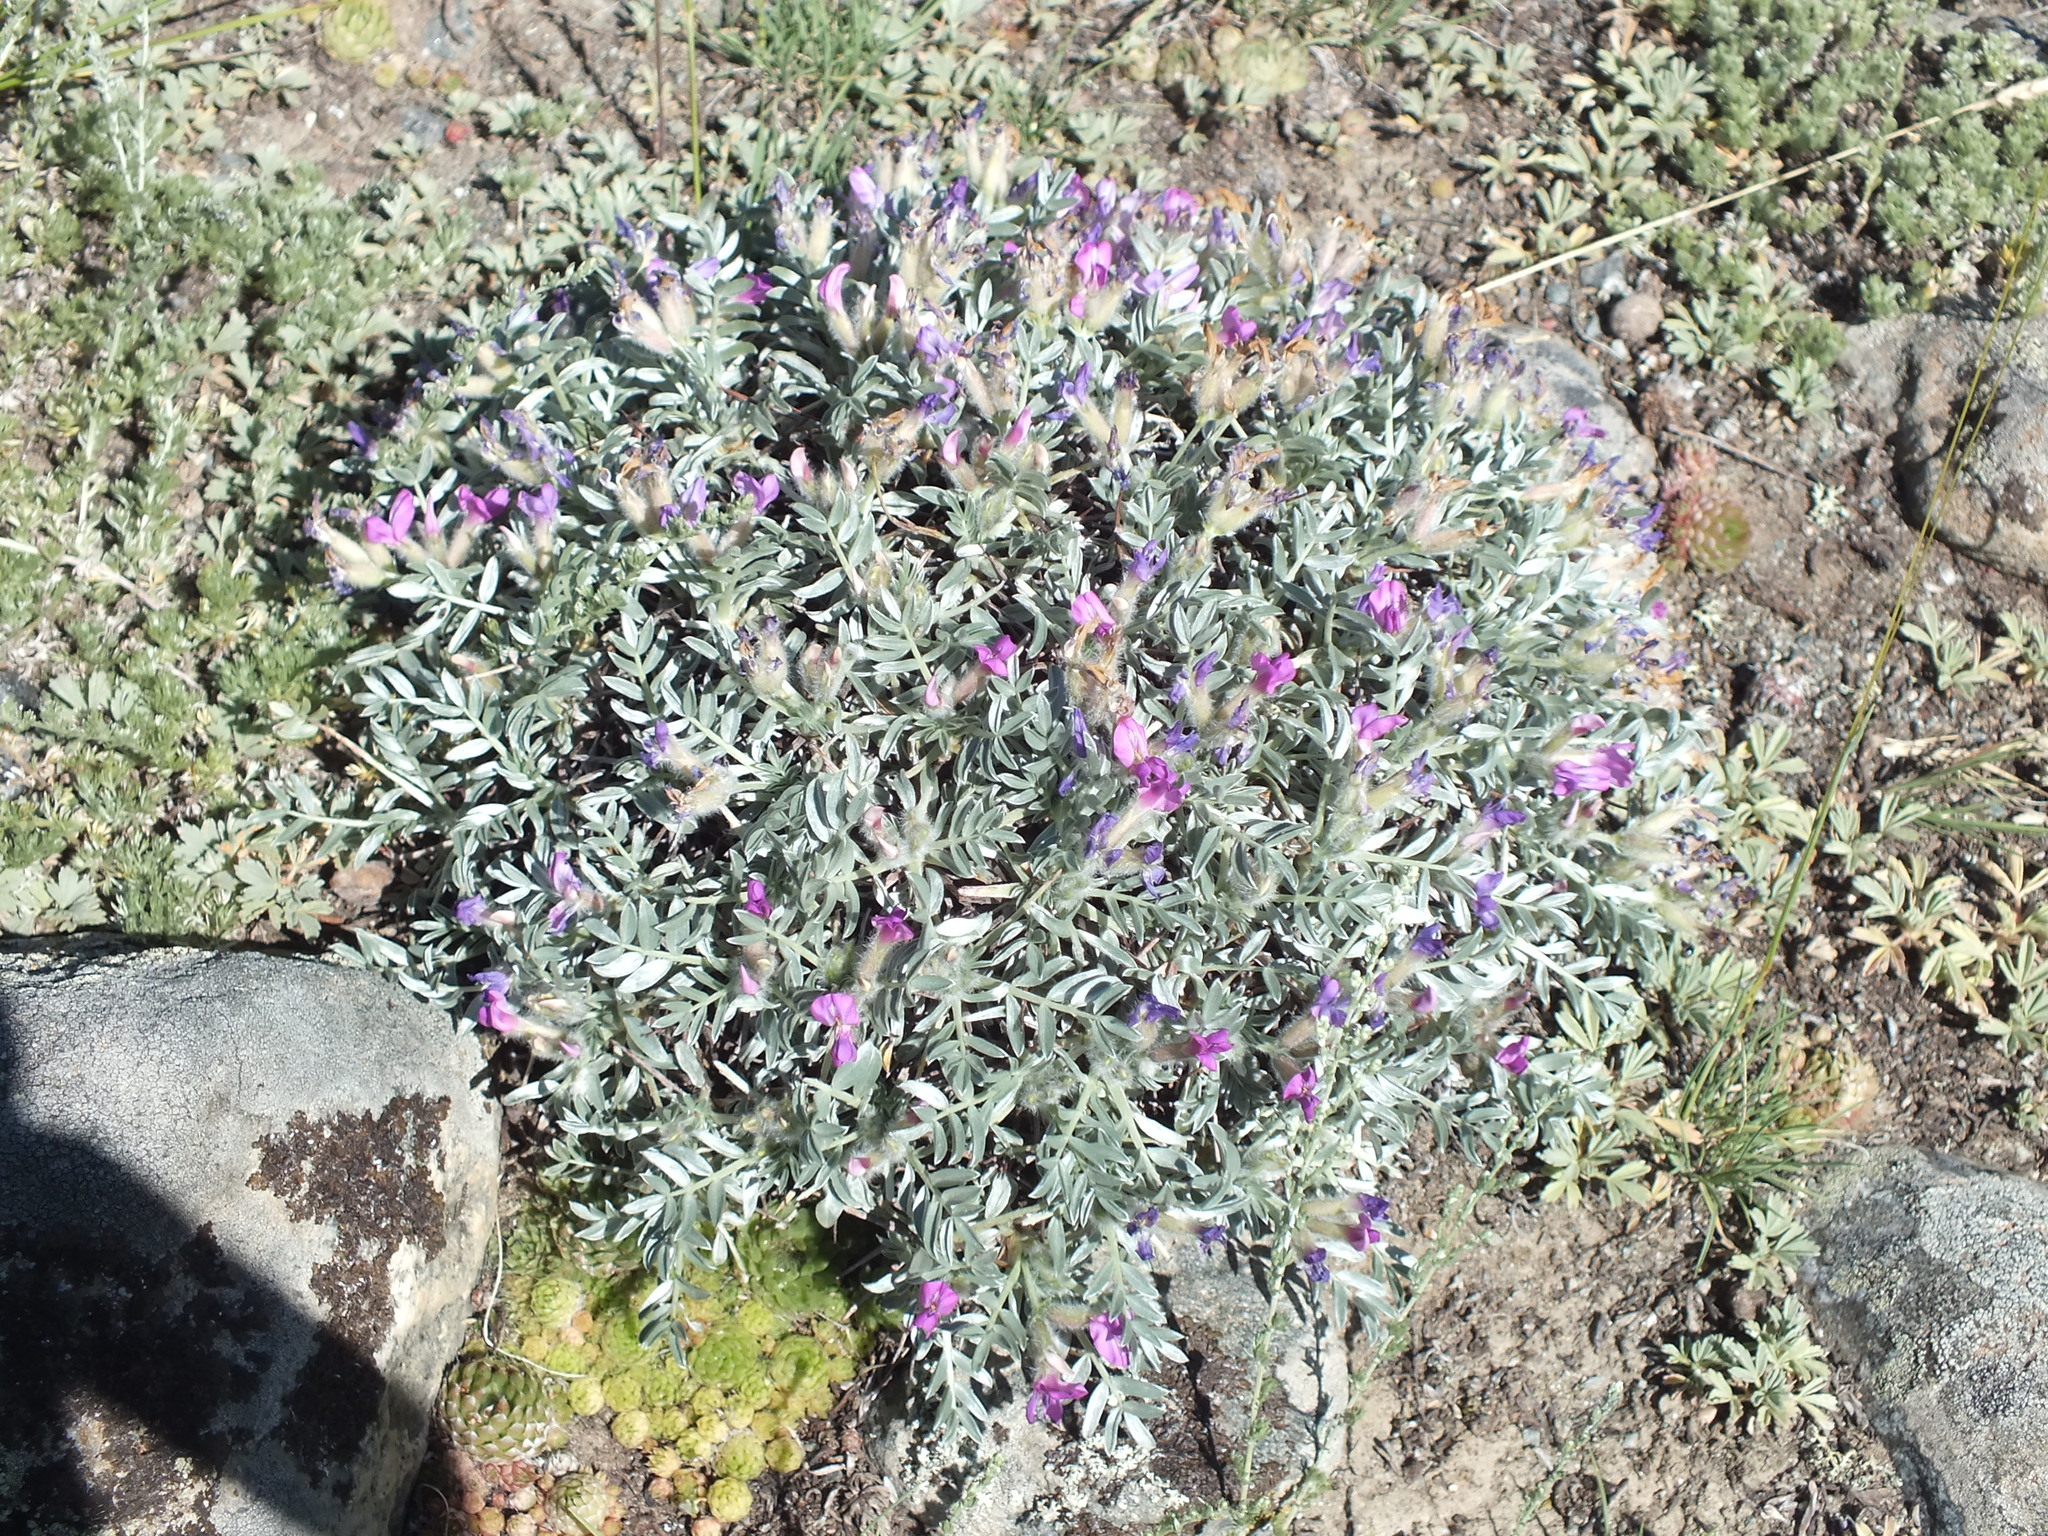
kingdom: Plantae
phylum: Tracheophyta
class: Magnoliopsida
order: Fabales
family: Fabaceae
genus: Oxytropis
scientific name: Oxytropis tragacanthoides
